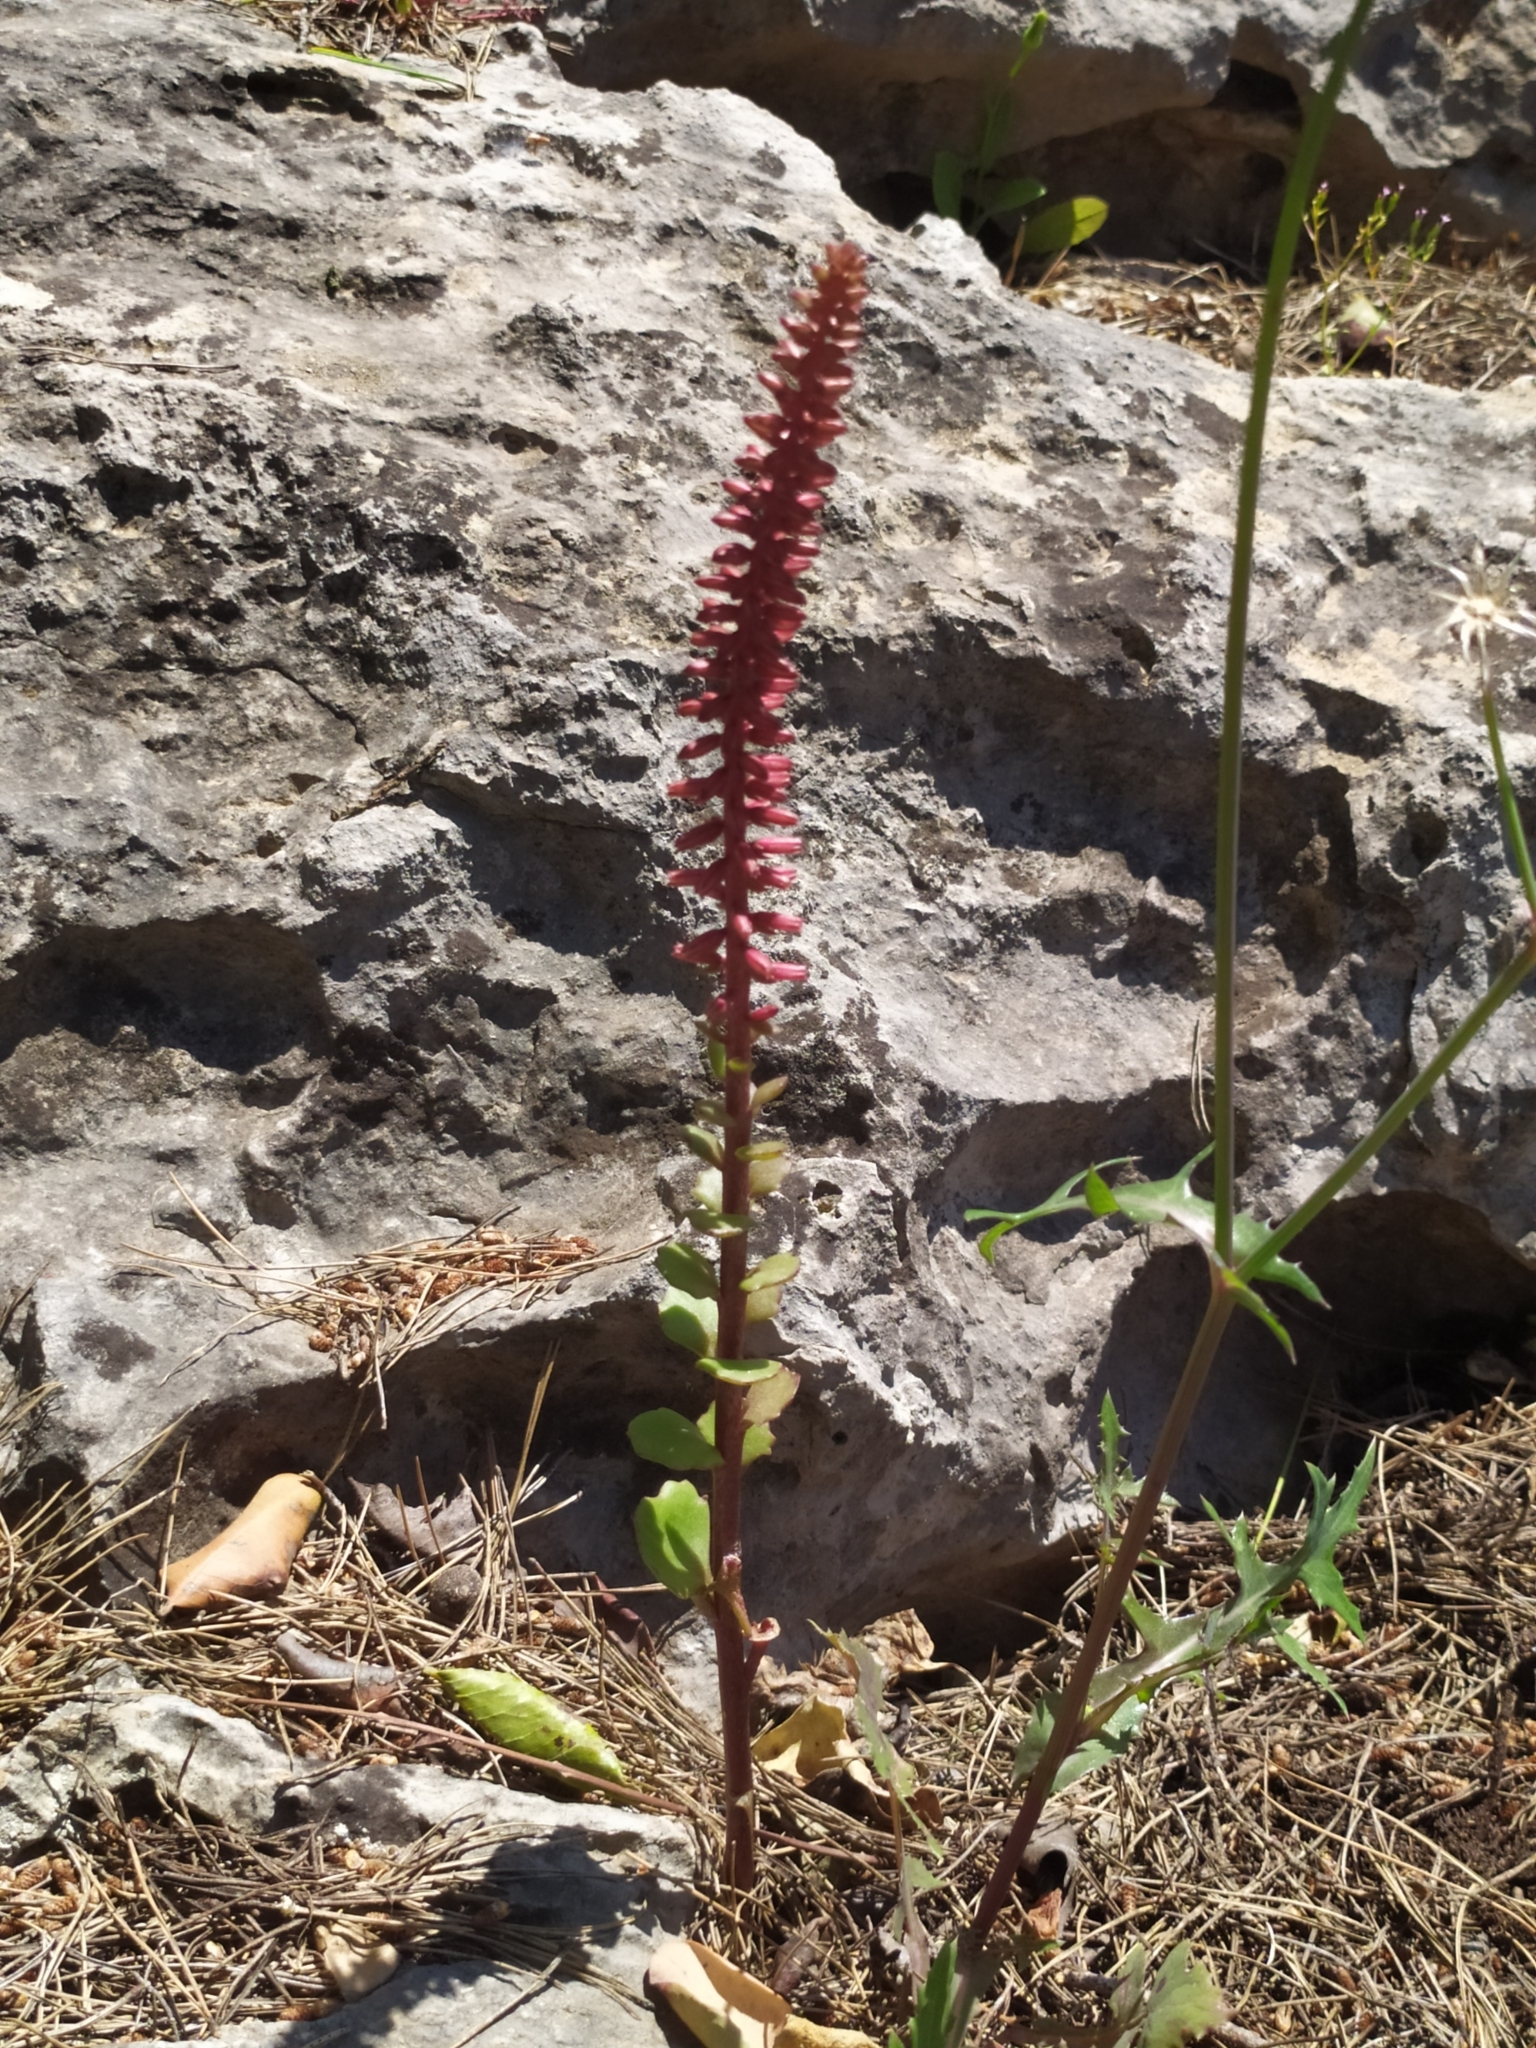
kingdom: Plantae
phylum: Tracheophyta
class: Magnoliopsida
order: Saxifragales
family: Crassulaceae
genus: Umbilicus
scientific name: Umbilicus horizontalis
